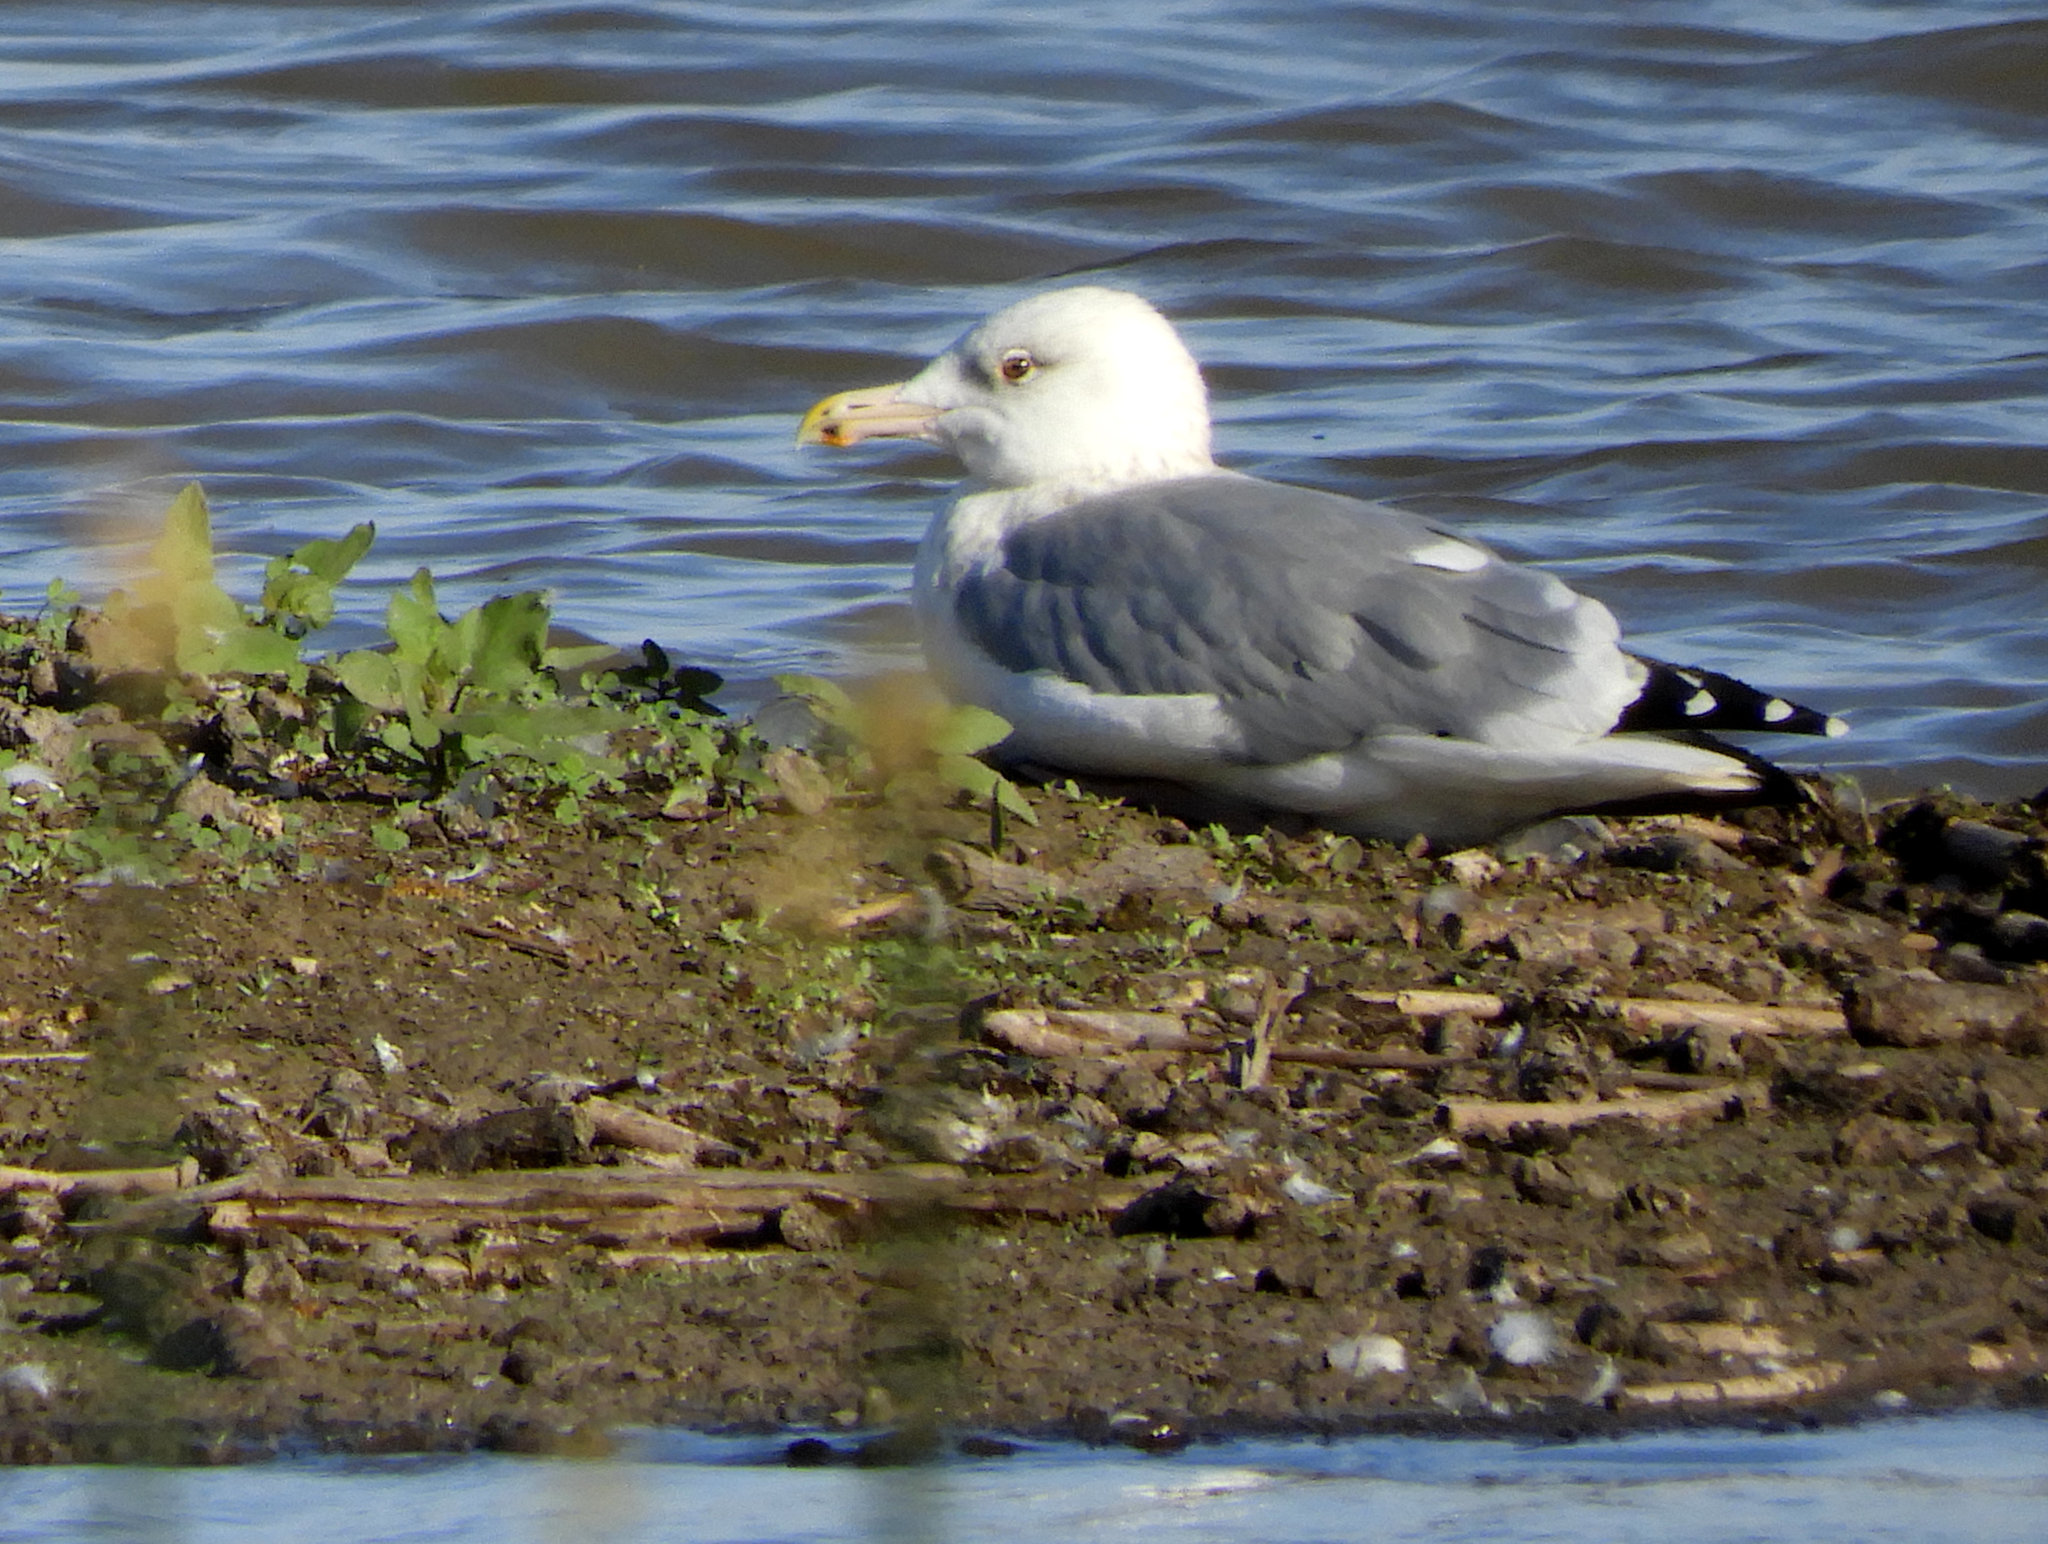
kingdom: Animalia
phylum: Chordata
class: Aves
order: Charadriiformes
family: Laridae
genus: Larus
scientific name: Larus argentatus
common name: Herring gull
